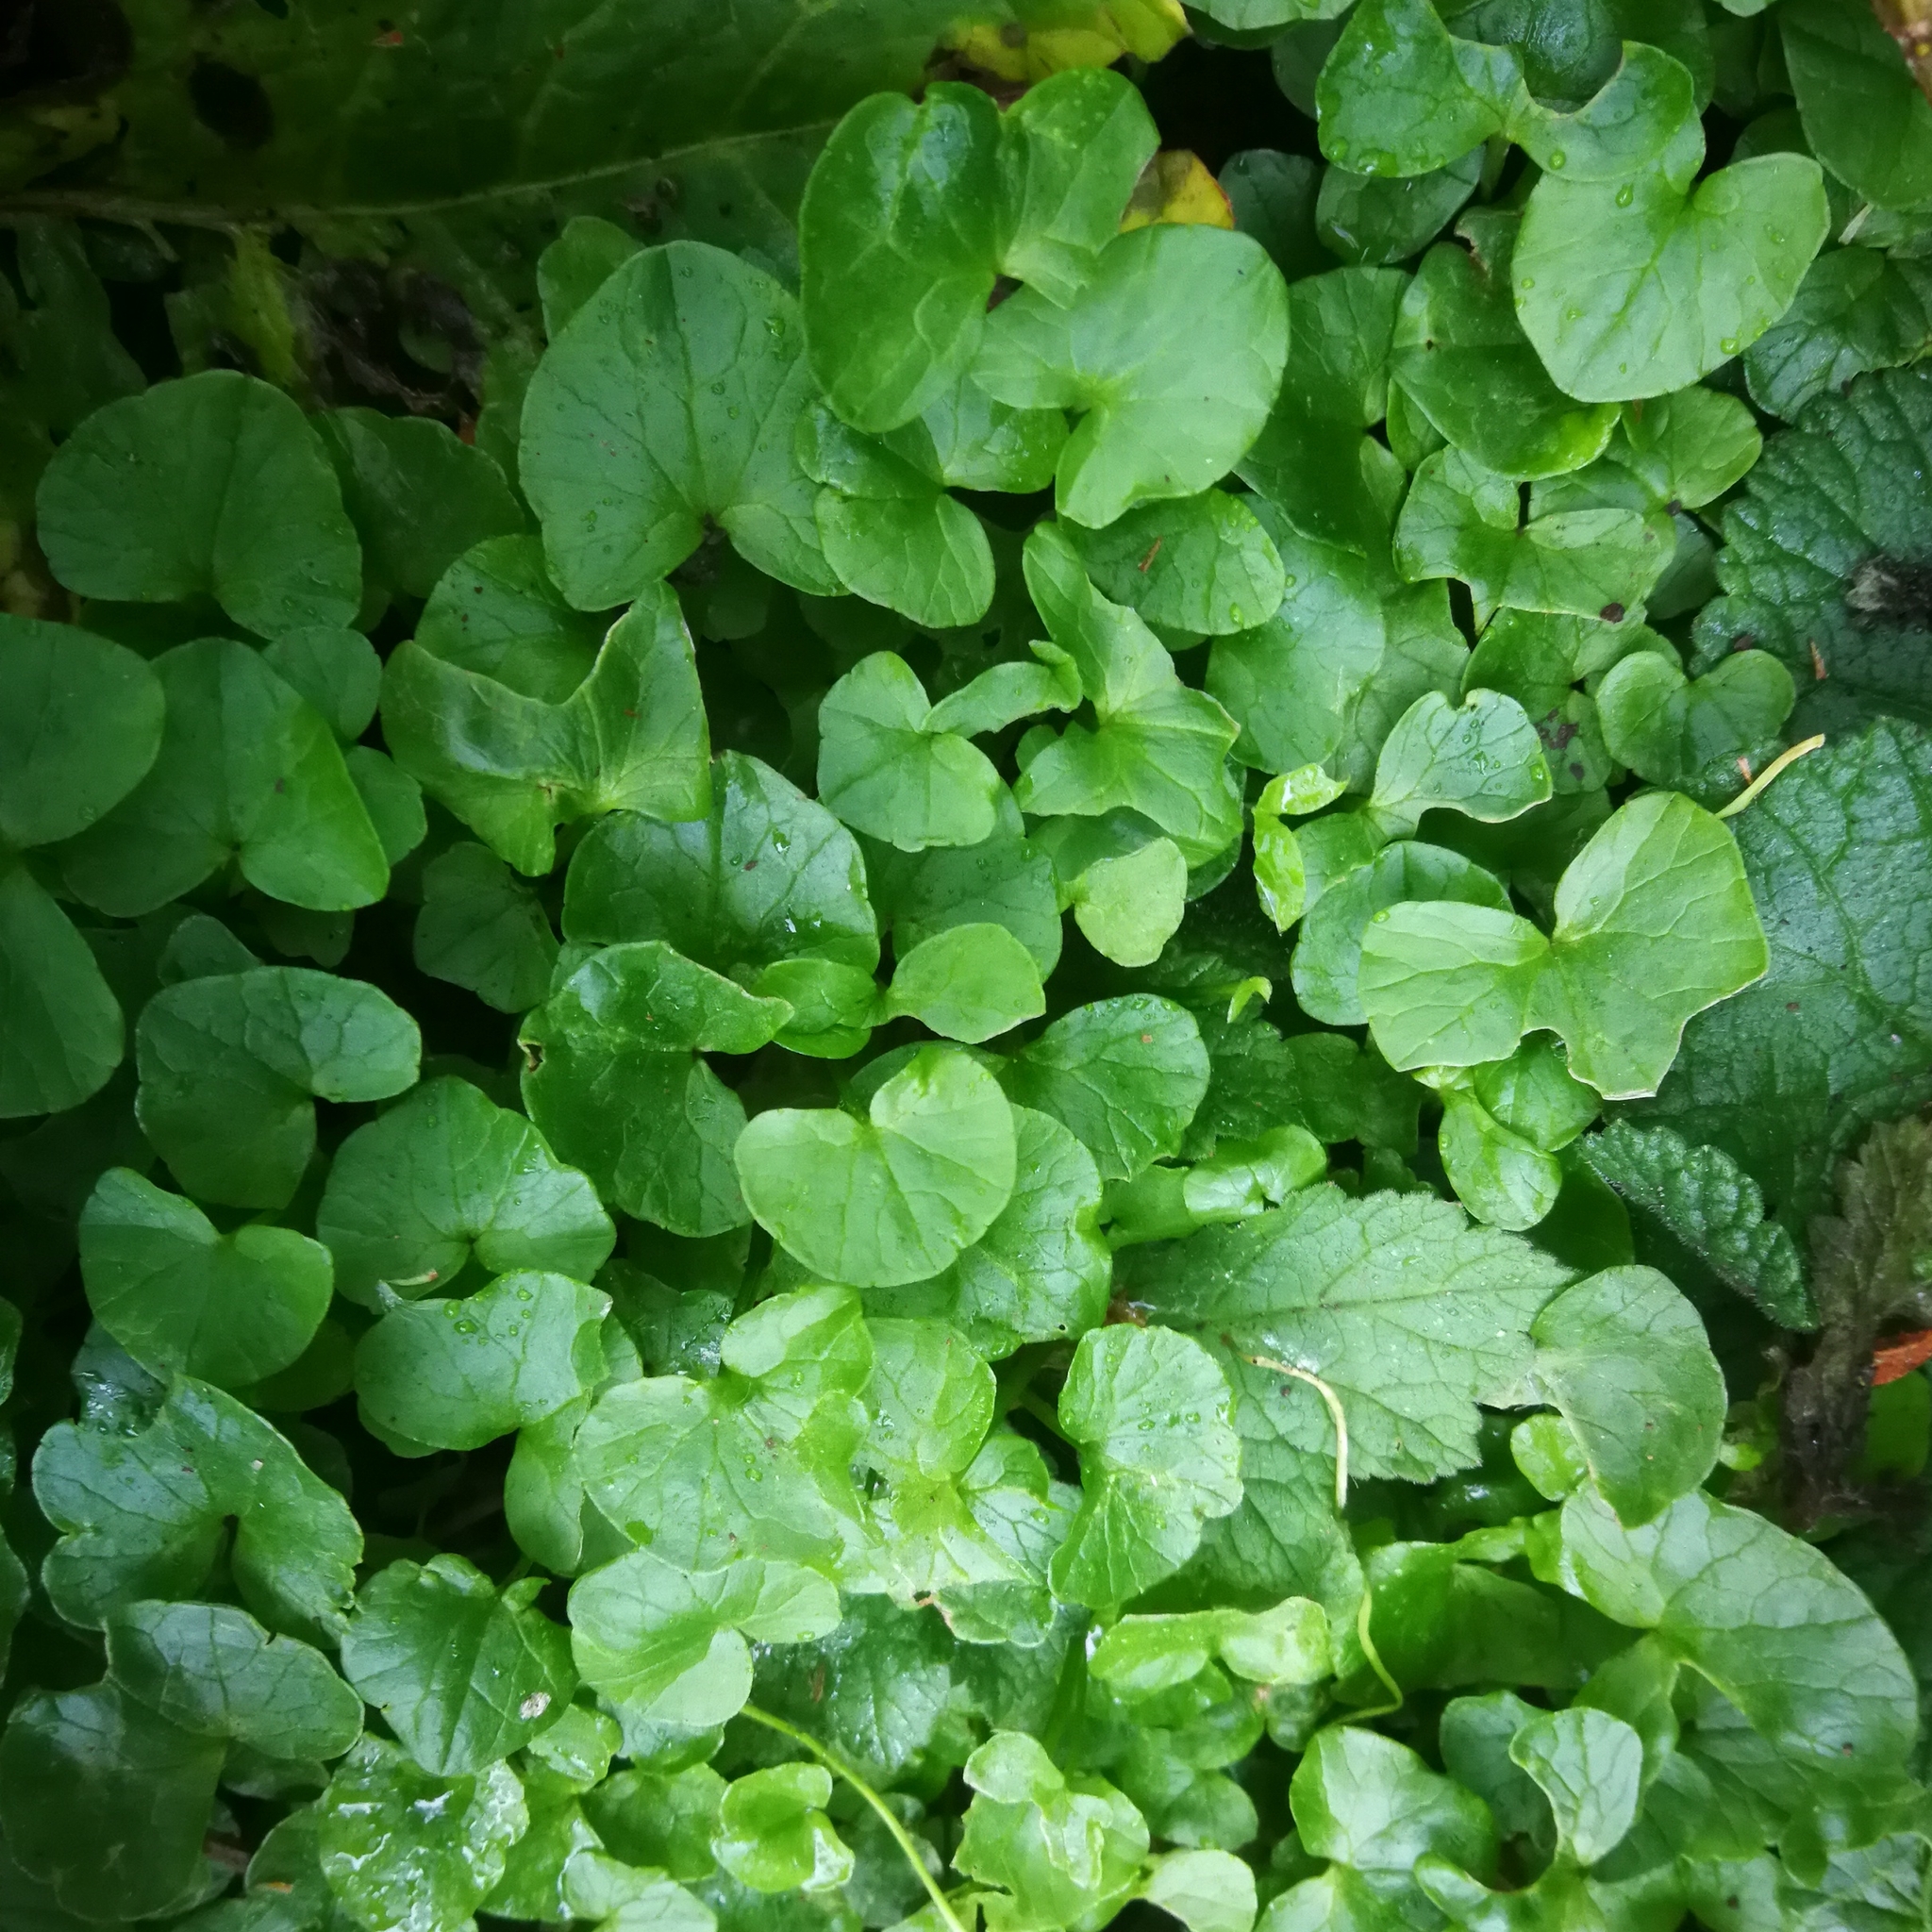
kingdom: Plantae
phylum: Tracheophyta
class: Magnoliopsida
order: Ranunculales
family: Ranunculaceae
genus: Ficaria
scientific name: Ficaria verna
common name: Lesser celandine
